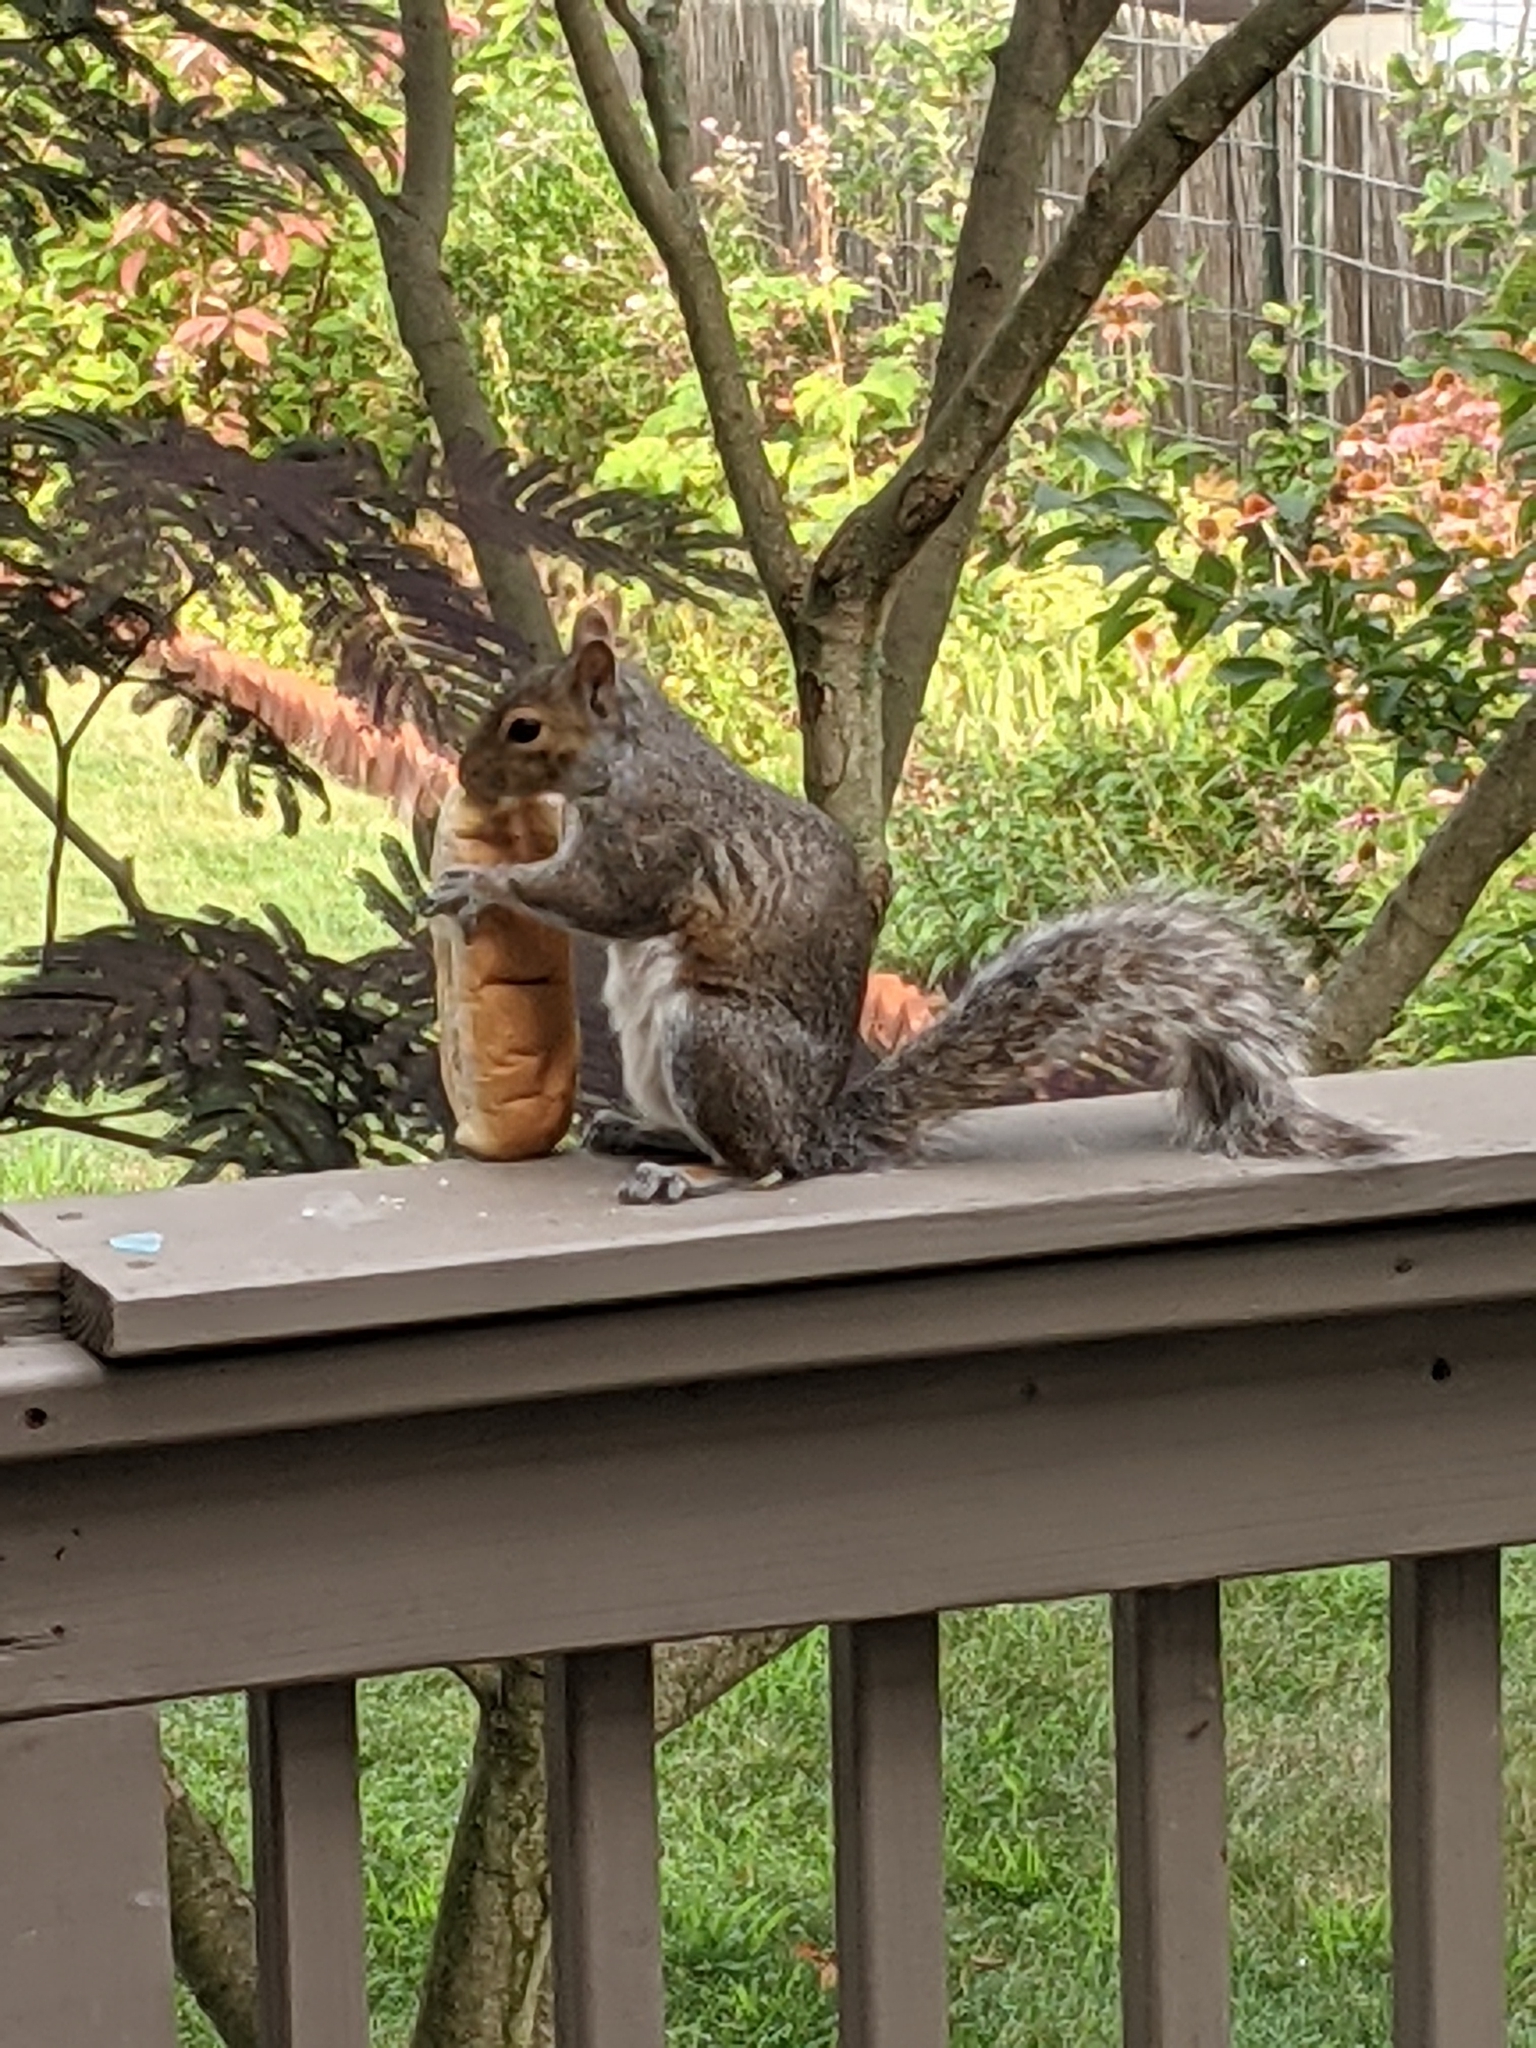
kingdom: Animalia
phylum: Chordata
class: Mammalia
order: Rodentia
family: Sciuridae
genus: Sciurus
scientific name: Sciurus carolinensis
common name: Eastern gray squirrel
